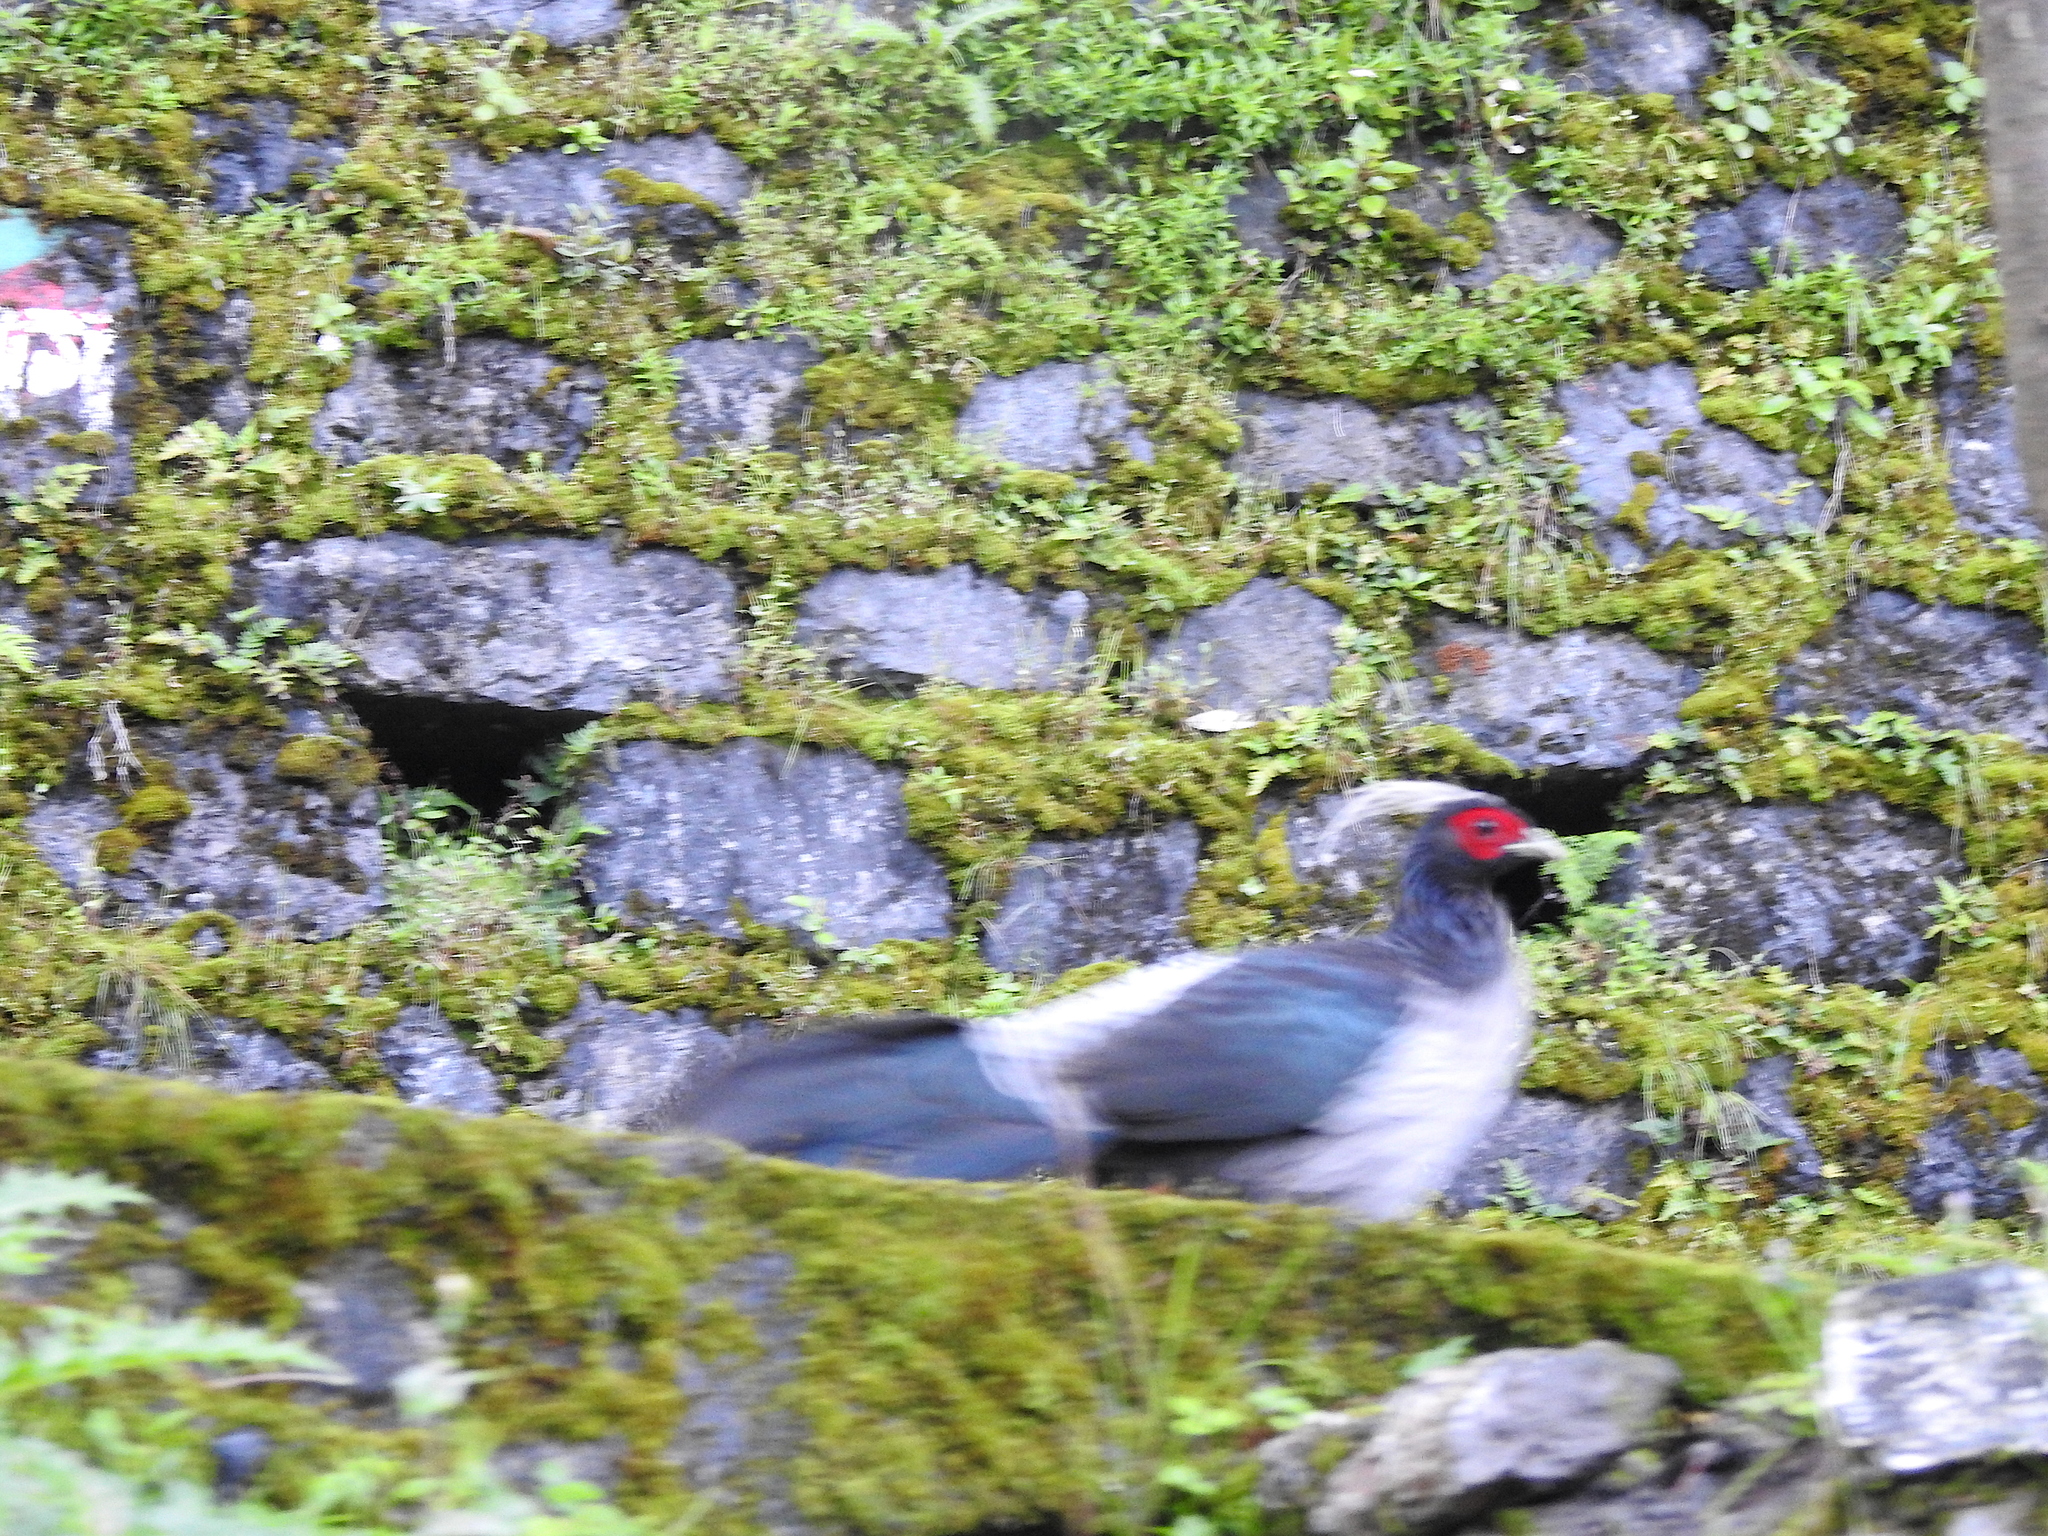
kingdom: Animalia
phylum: Chordata
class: Aves
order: Galliformes
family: Phasianidae
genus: Lophura
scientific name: Lophura leucomelanos
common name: Kalij pheasant
